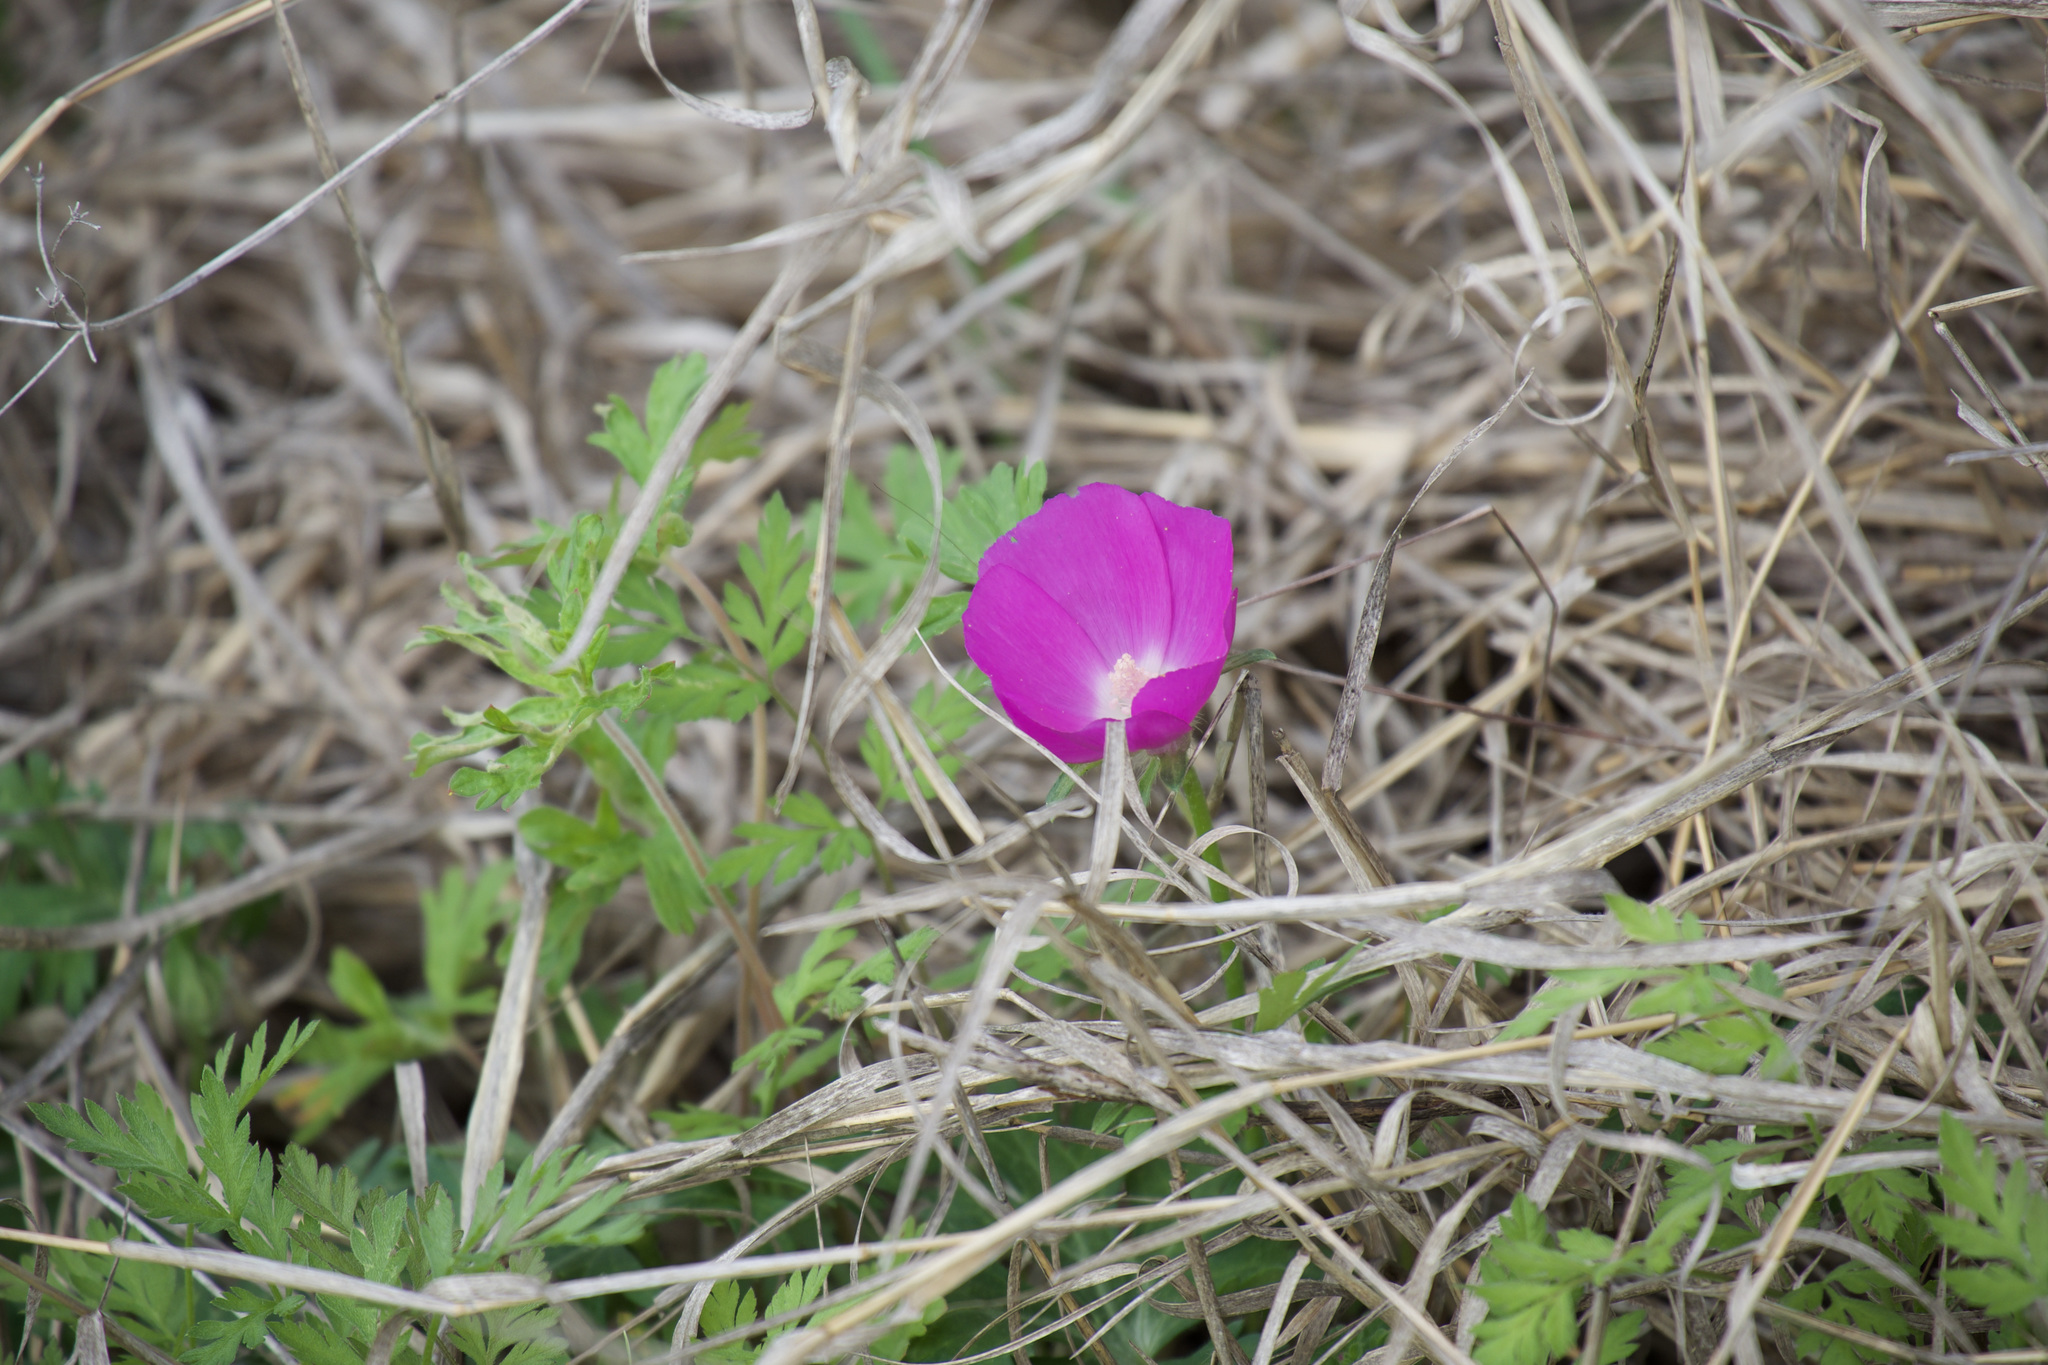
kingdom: Plantae
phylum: Tracheophyta
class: Magnoliopsida
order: Malvales
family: Malvaceae
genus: Callirhoe
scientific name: Callirhoe involucrata
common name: Purple poppy-mallow
